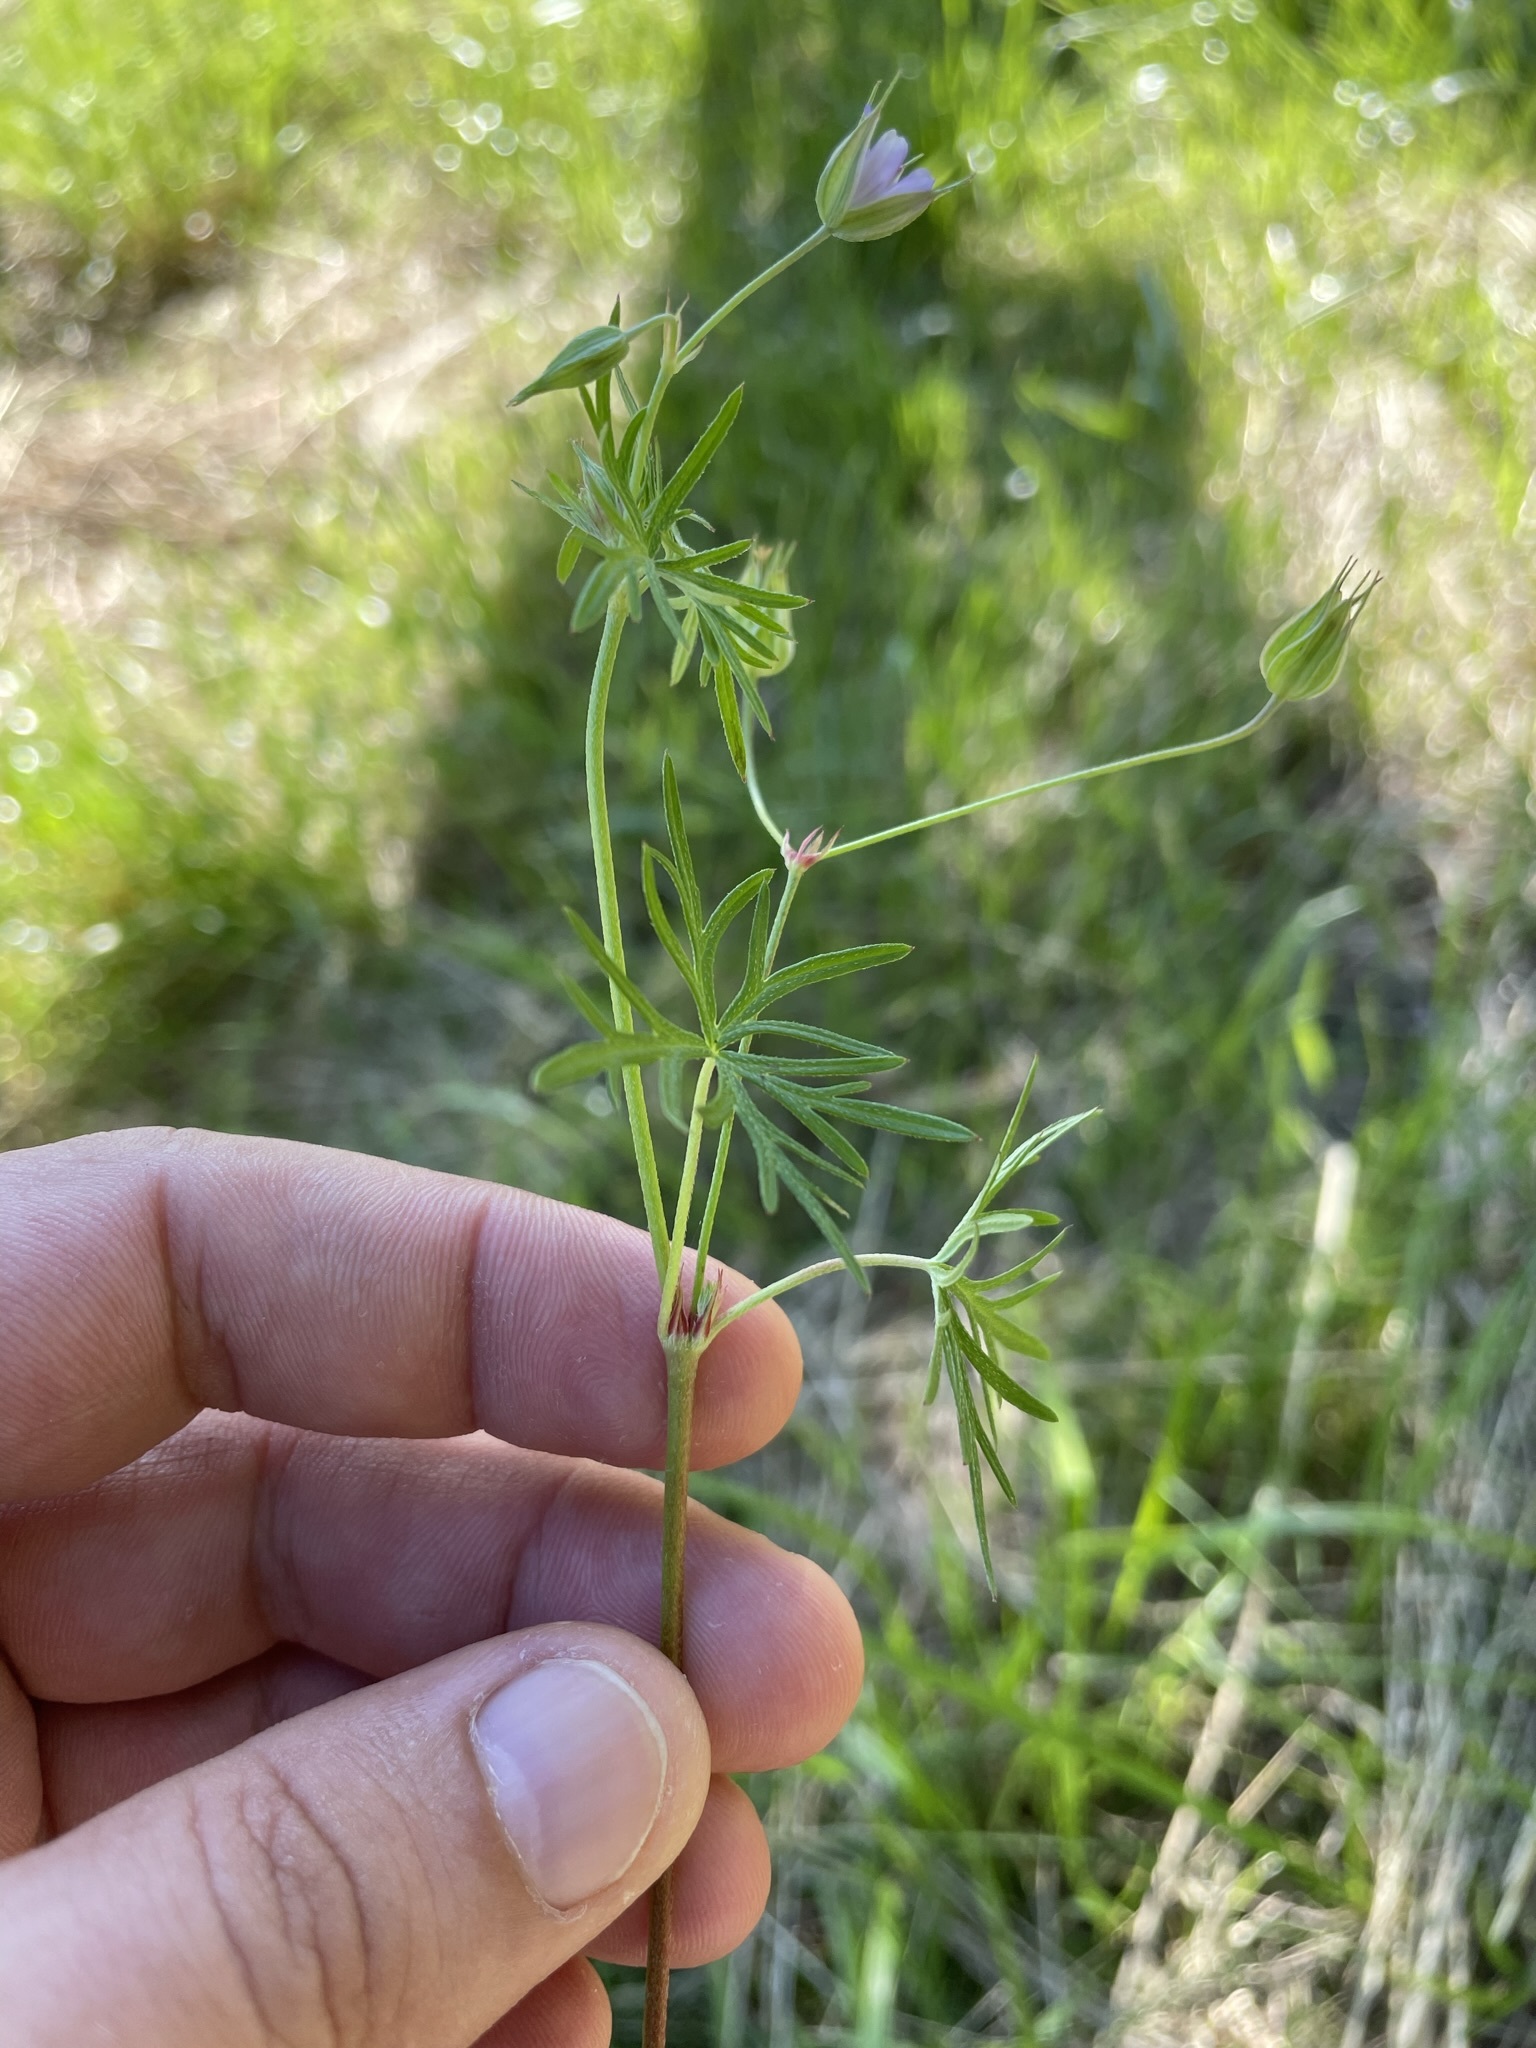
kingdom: Plantae
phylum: Tracheophyta
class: Magnoliopsida
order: Geraniales
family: Geraniaceae
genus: Geranium
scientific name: Geranium columbinum
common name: Long-stalked crane's-bill
